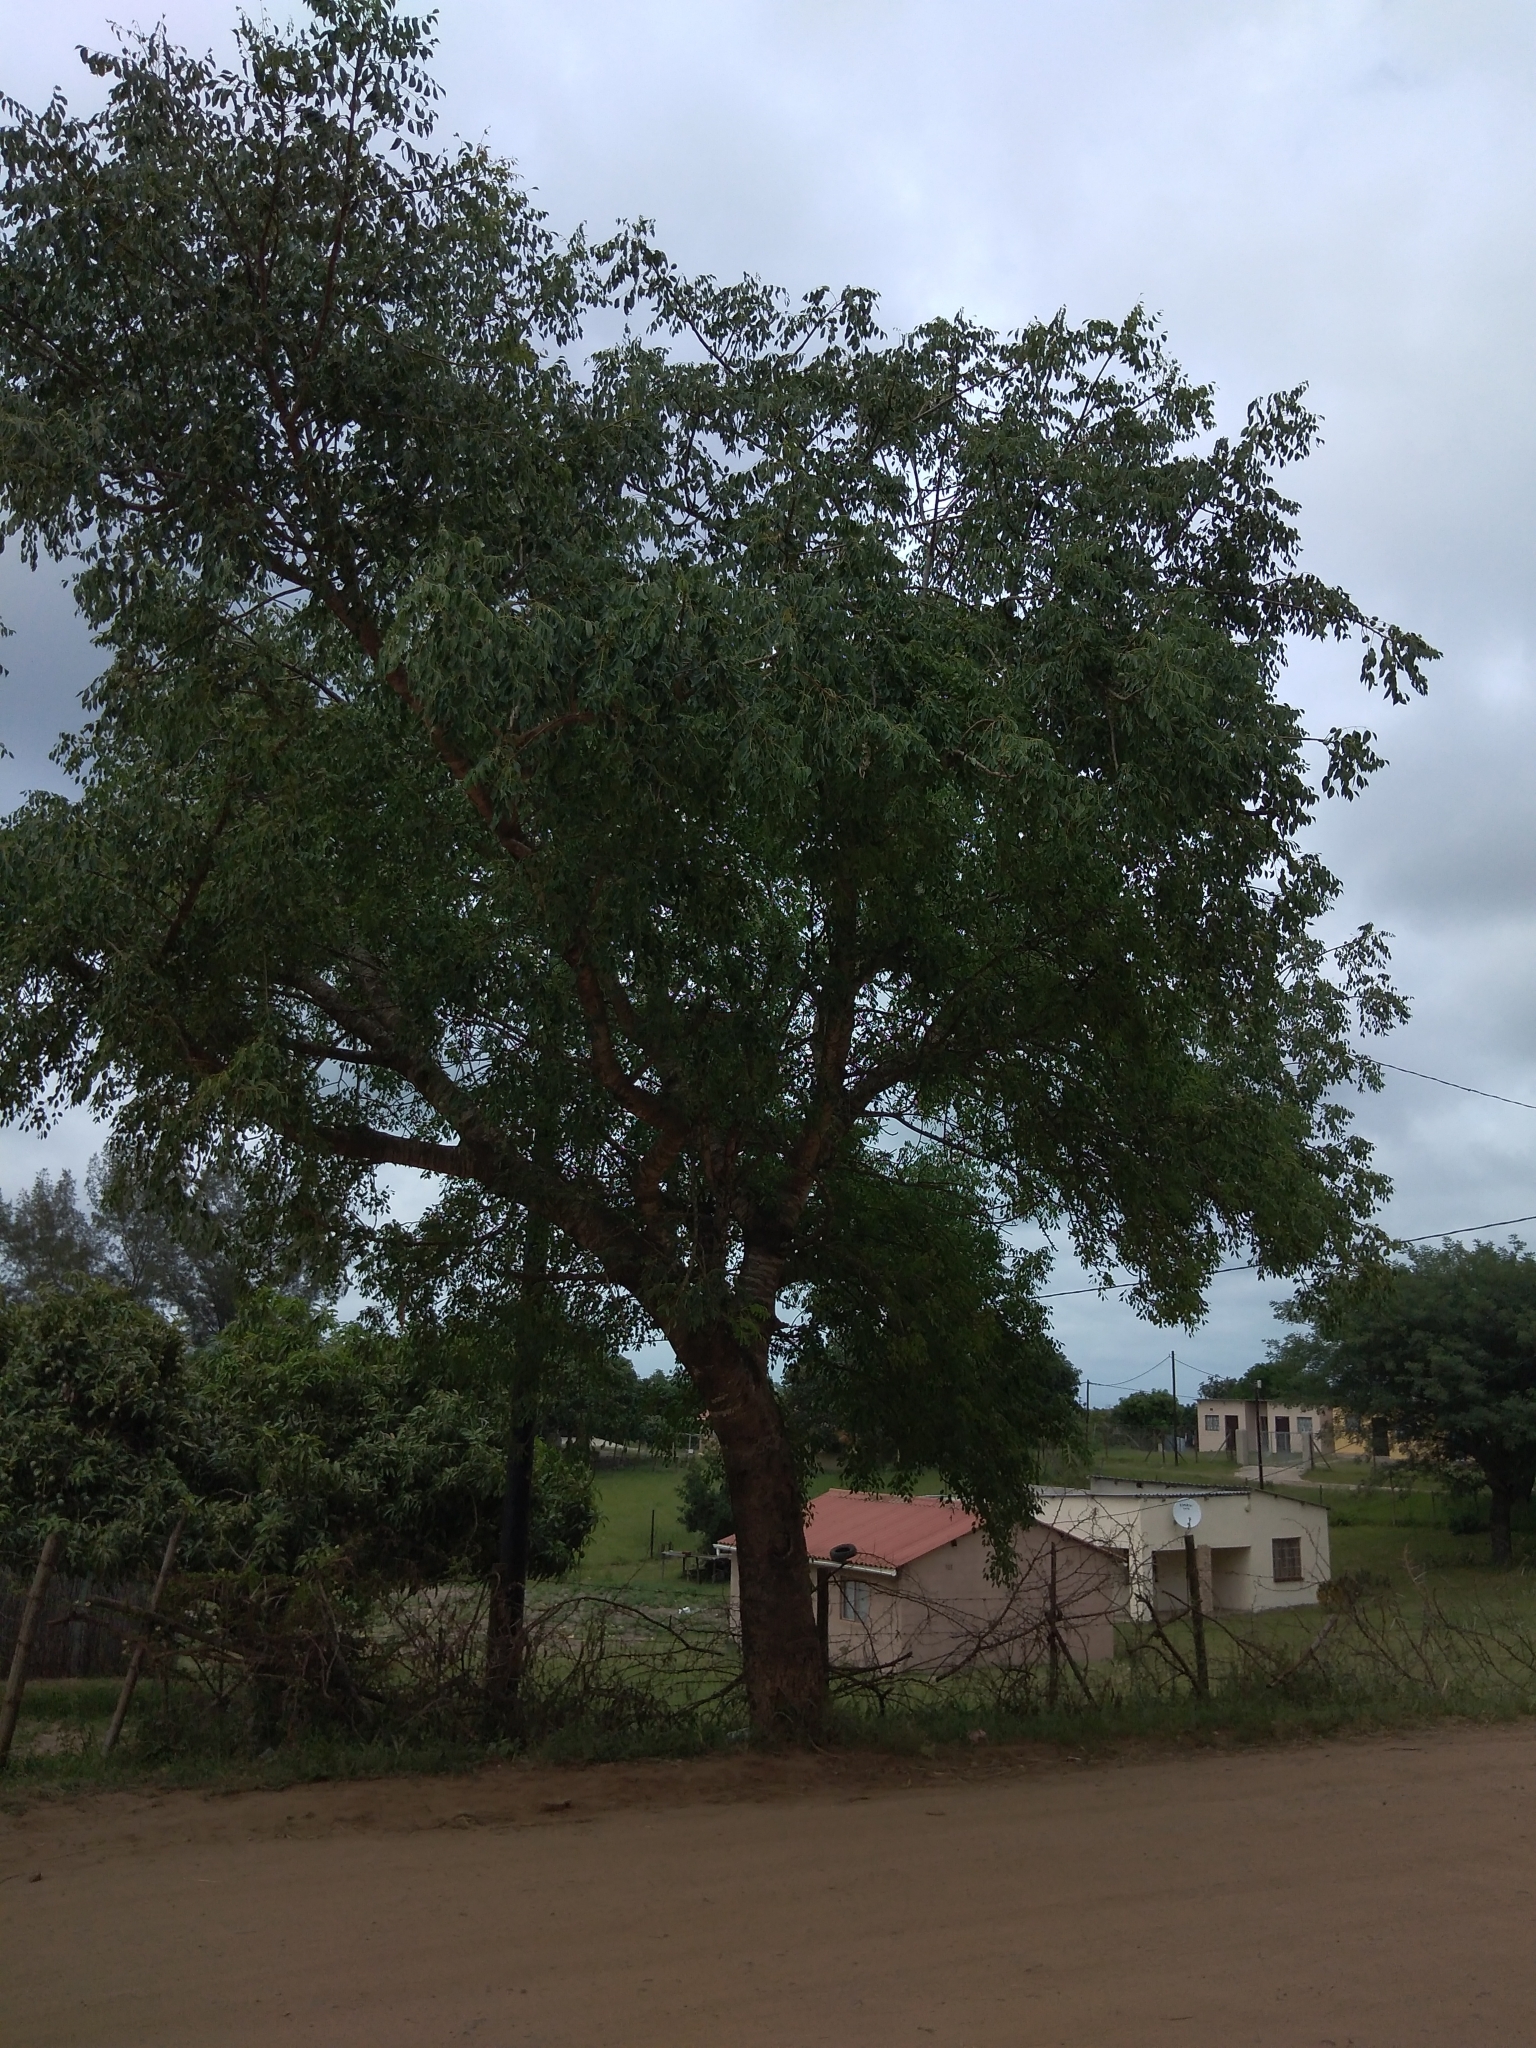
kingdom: Plantae
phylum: Tracheophyta
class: Magnoliopsida
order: Sapindales
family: Anacardiaceae
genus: Sclerocarya
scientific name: Sclerocarya birrea
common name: Marula
